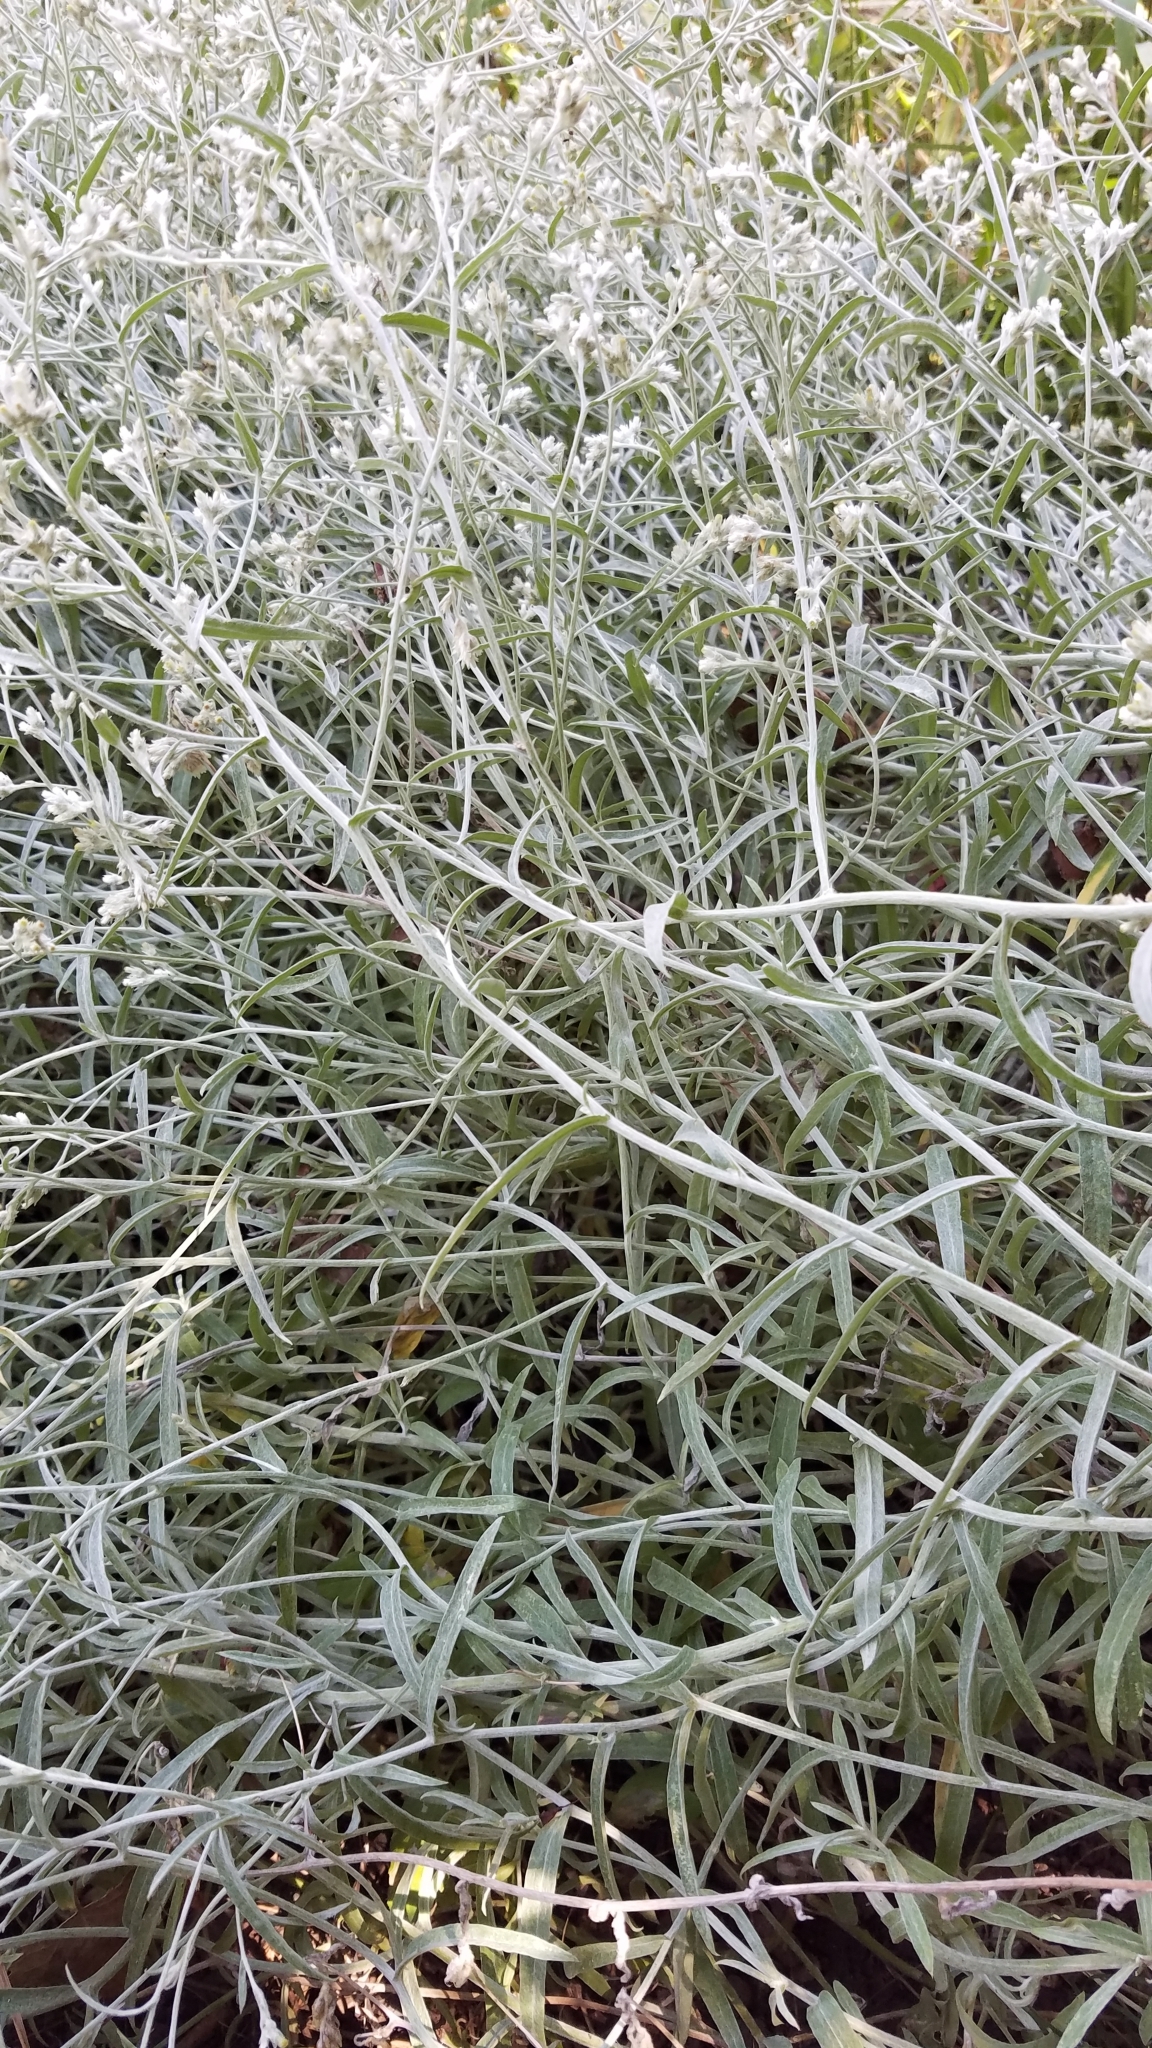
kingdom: Plantae
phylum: Tracheophyta
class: Magnoliopsida
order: Asterales
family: Asteraceae
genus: Pseudognaphalium
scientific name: Pseudognaphalium macounii
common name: Clammy cudweed
